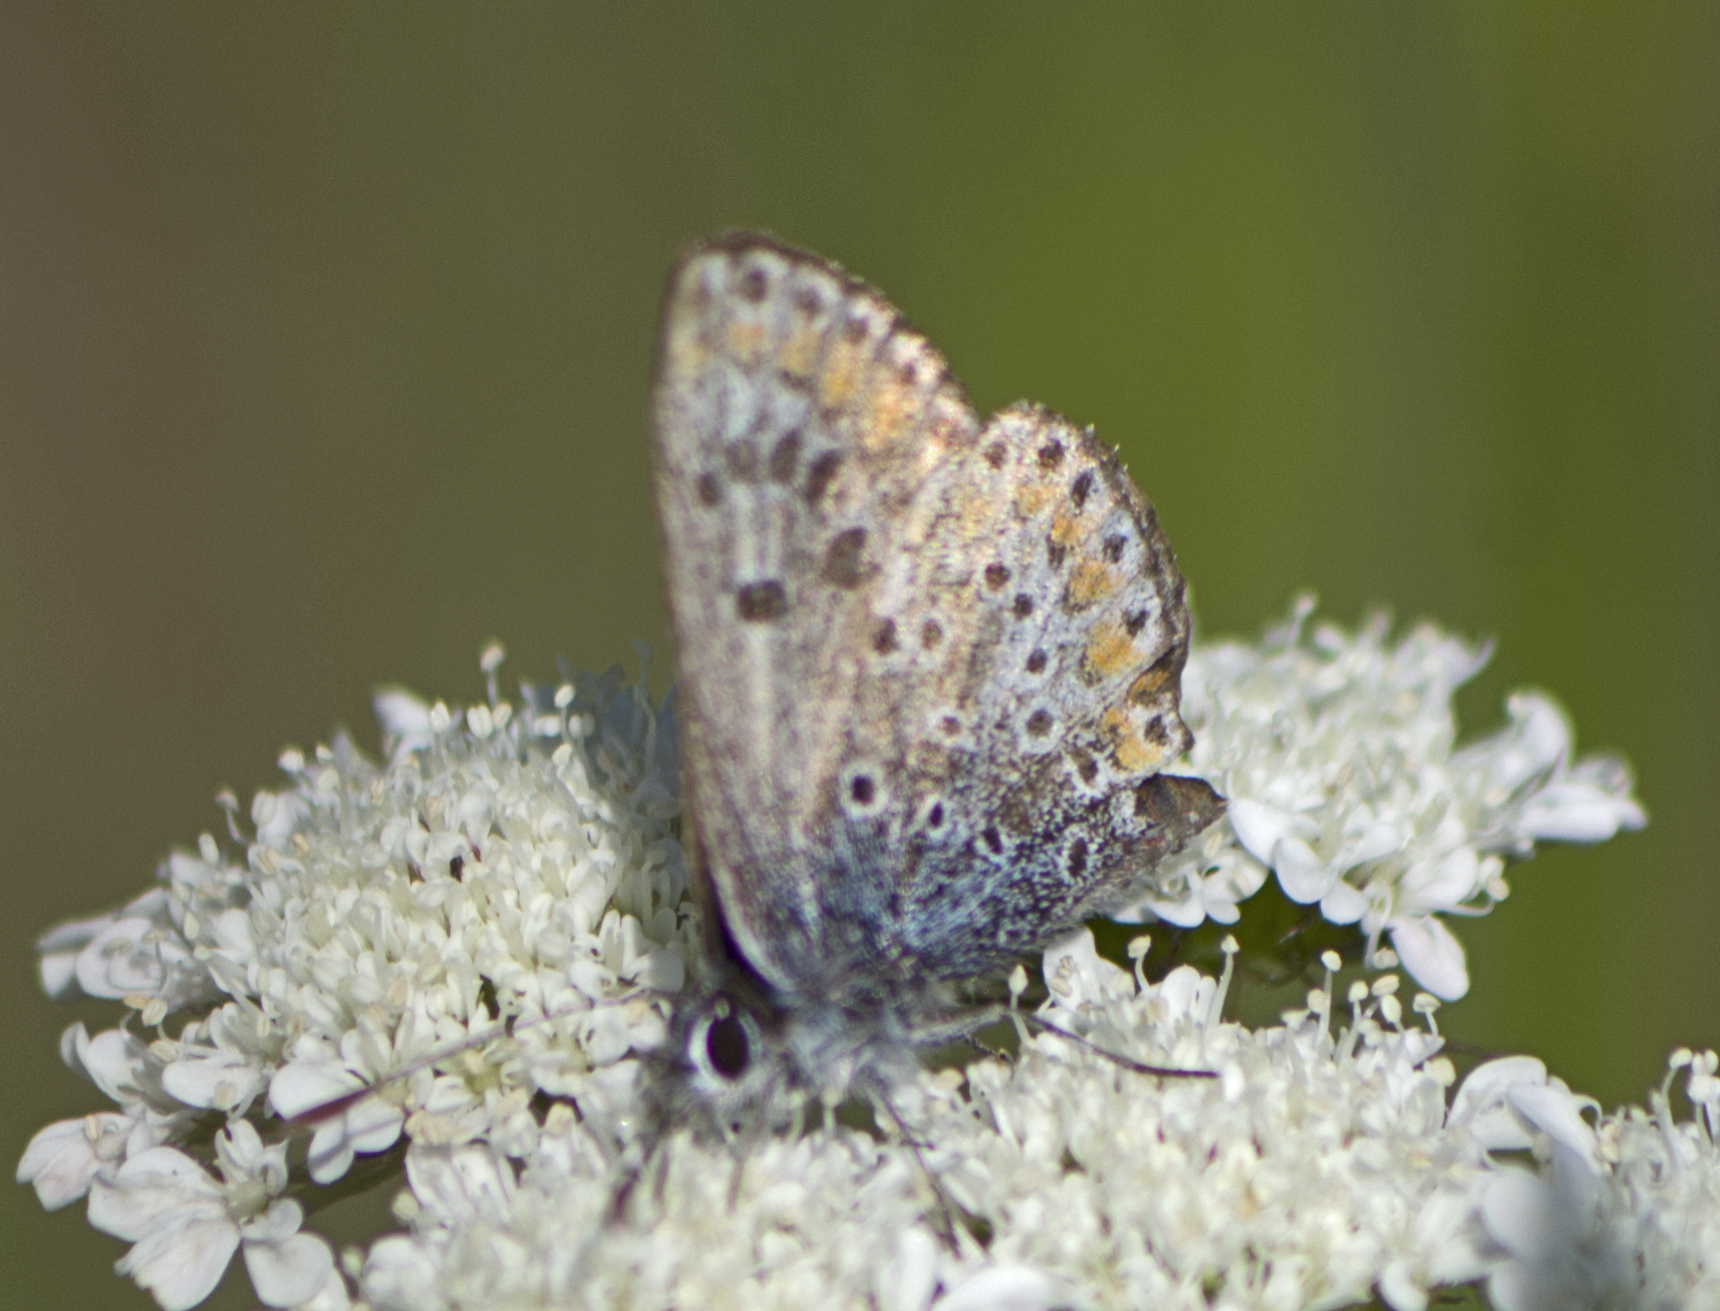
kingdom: Animalia
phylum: Arthropoda
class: Insecta
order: Lepidoptera
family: Lycaenidae
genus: Aricia
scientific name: Aricia agestis
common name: Brown argus
